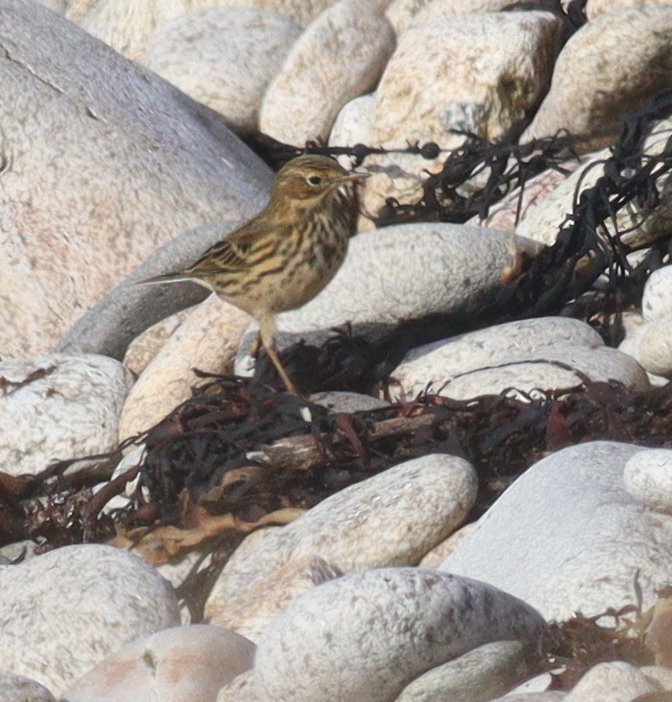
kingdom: Animalia
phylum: Chordata
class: Aves
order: Passeriformes
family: Motacillidae
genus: Anthus
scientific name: Anthus pratensis
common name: Meadow pipit
